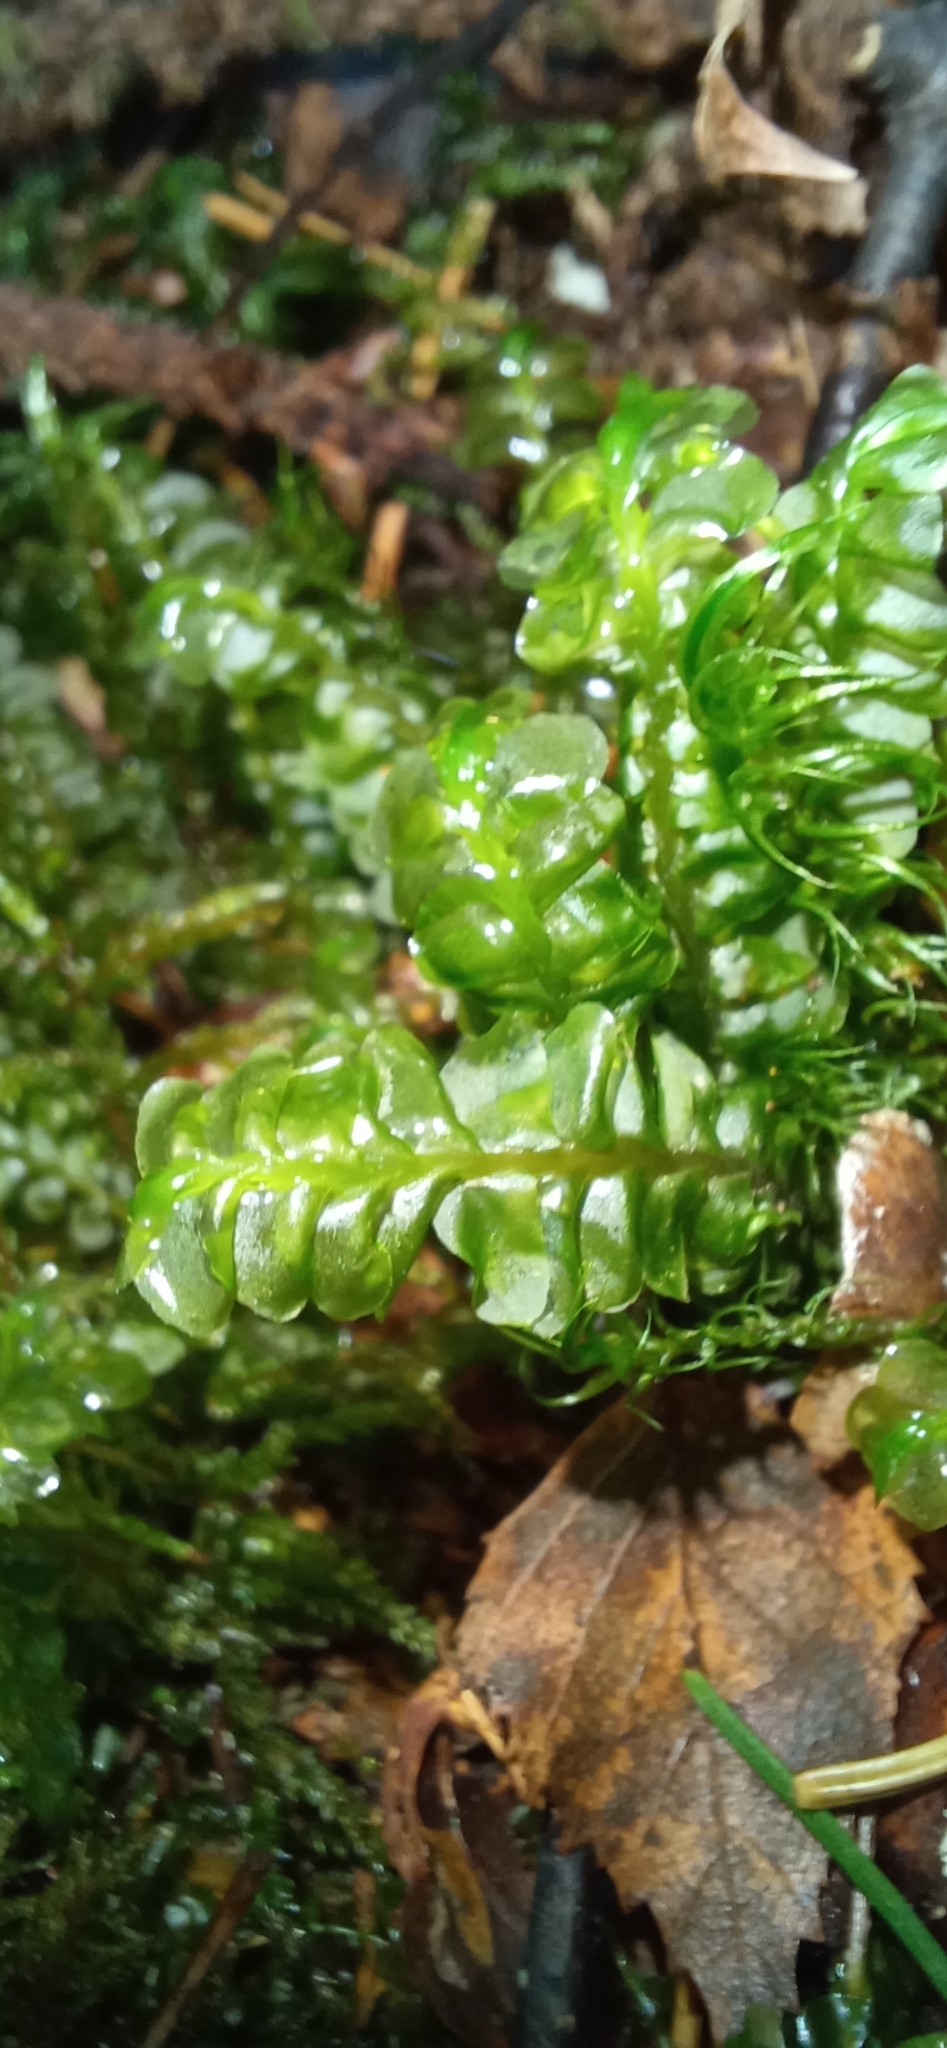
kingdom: Plantae
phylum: Marchantiophyta
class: Jungermanniopsida
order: Jungermanniales
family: Plagiochilaceae
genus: Plagiochila
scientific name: Plagiochila asplenioides
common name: Greater featherwort
